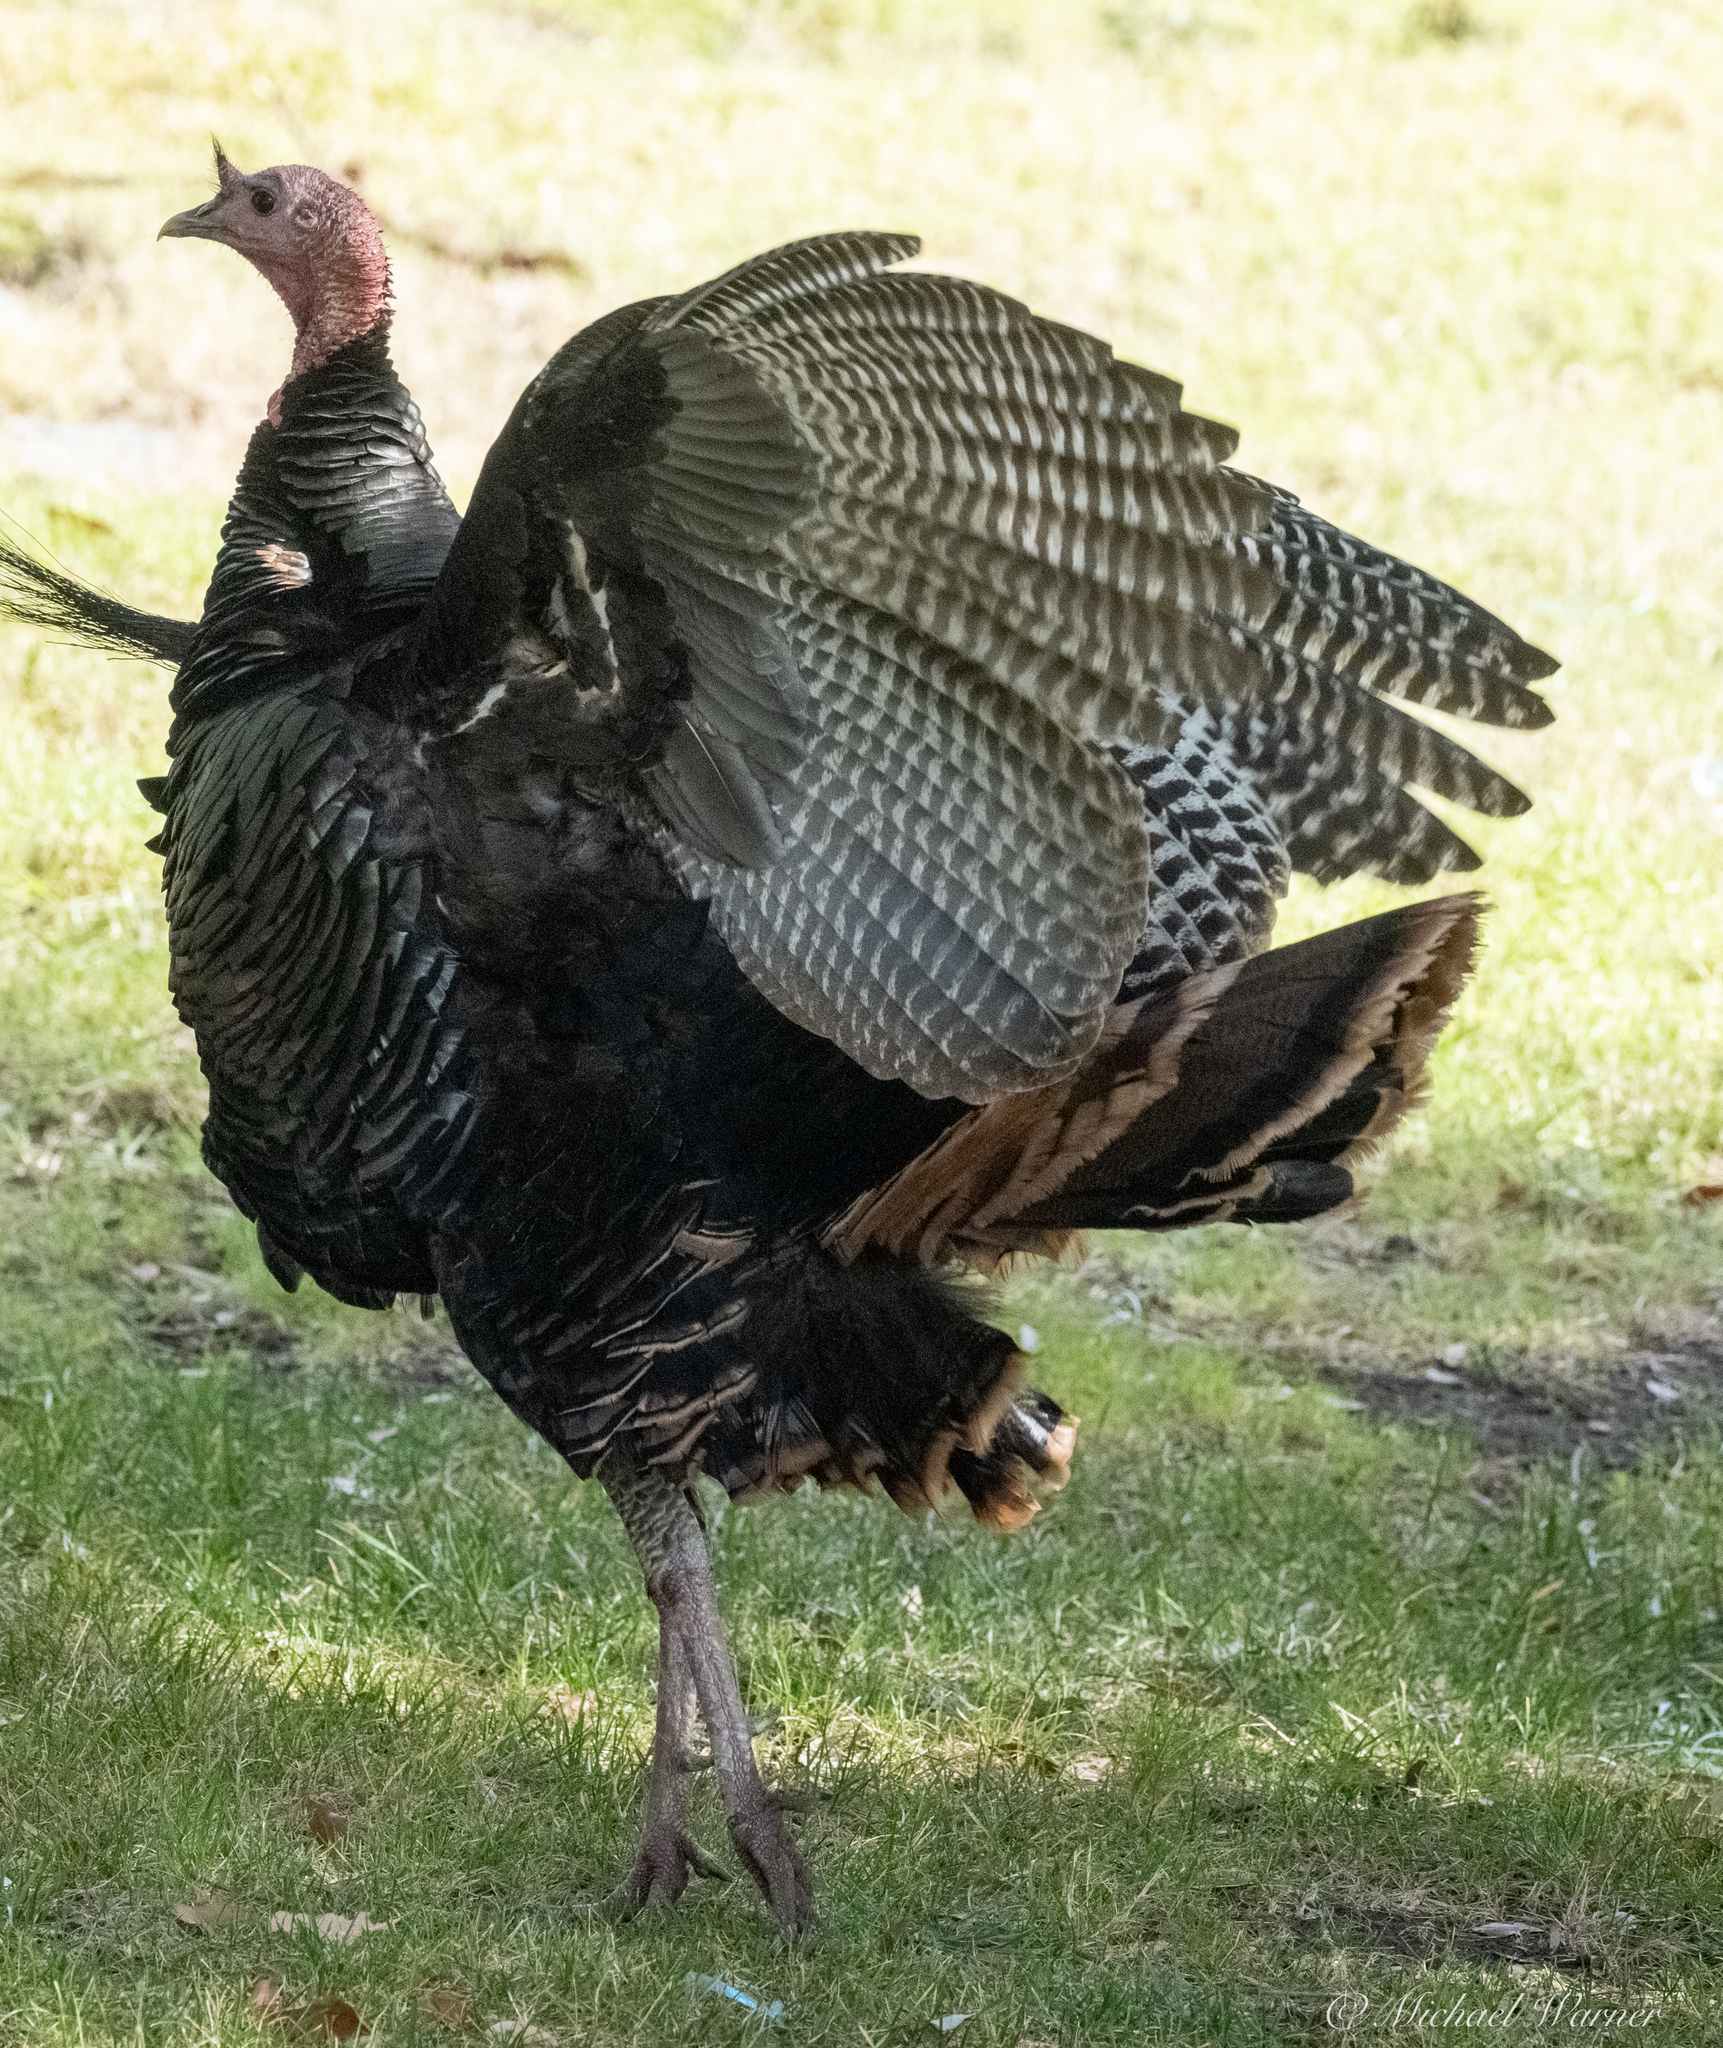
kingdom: Animalia
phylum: Chordata
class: Aves
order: Galliformes
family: Phasianidae
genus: Meleagris
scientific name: Meleagris gallopavo
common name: Wild turkey
